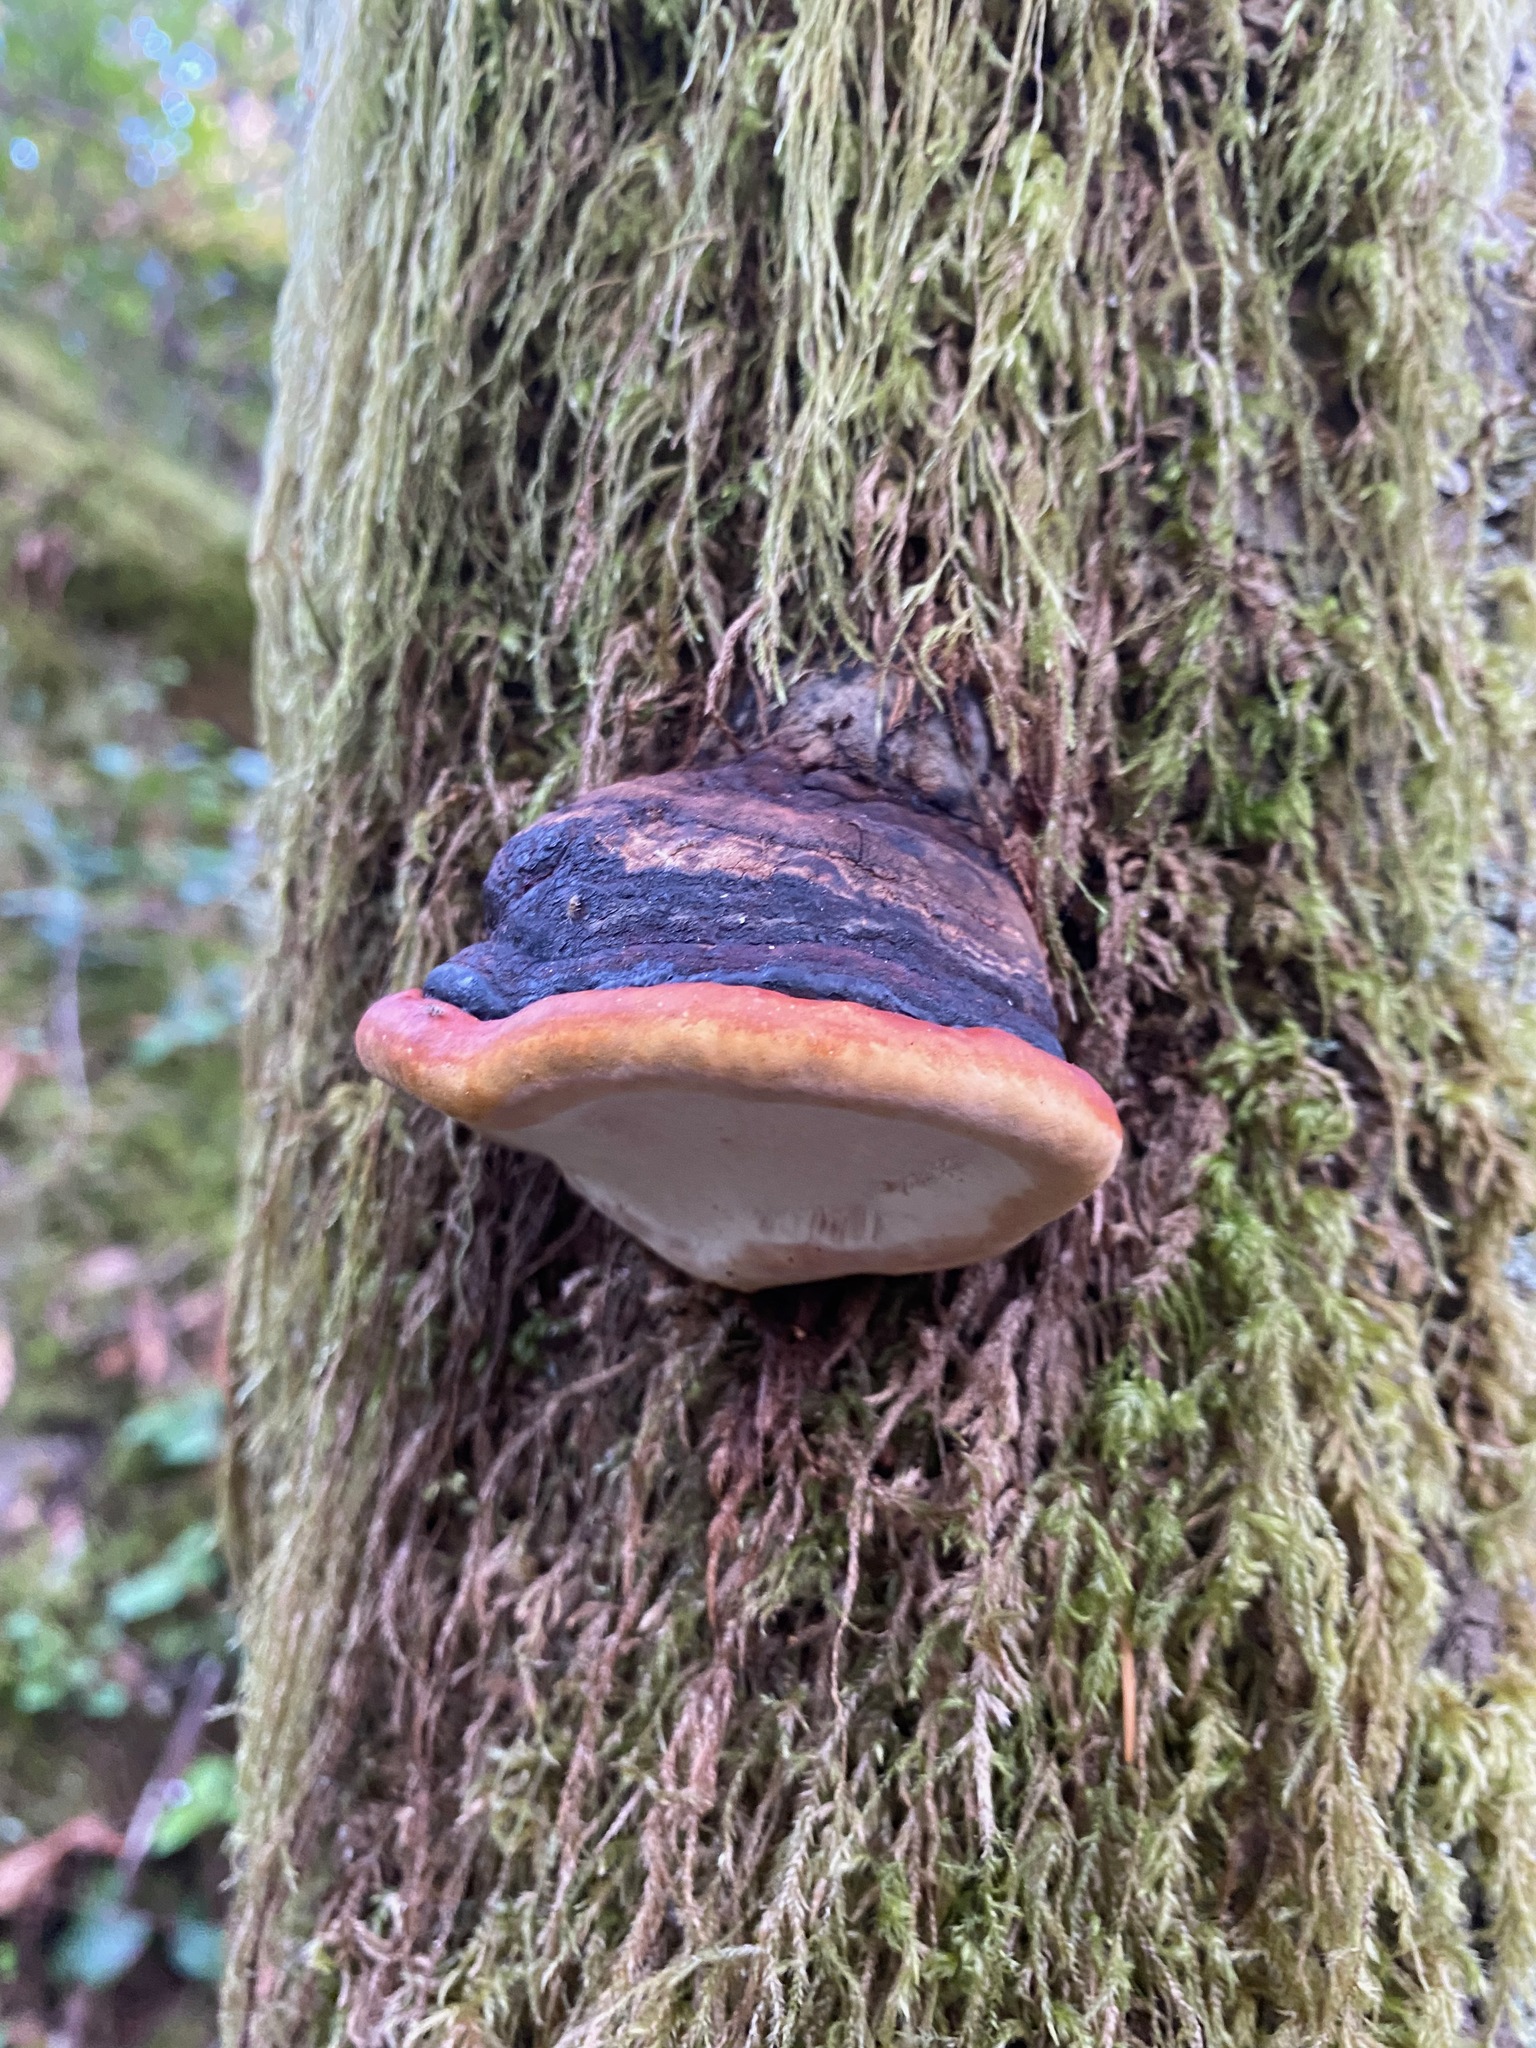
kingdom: Fungi
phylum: Basidiomycota
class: Agaricomycetes
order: Polyporales
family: Fomitopsidaceae
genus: Fomitopsis
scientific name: Fomitopsis mounceae
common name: Northern red belt
